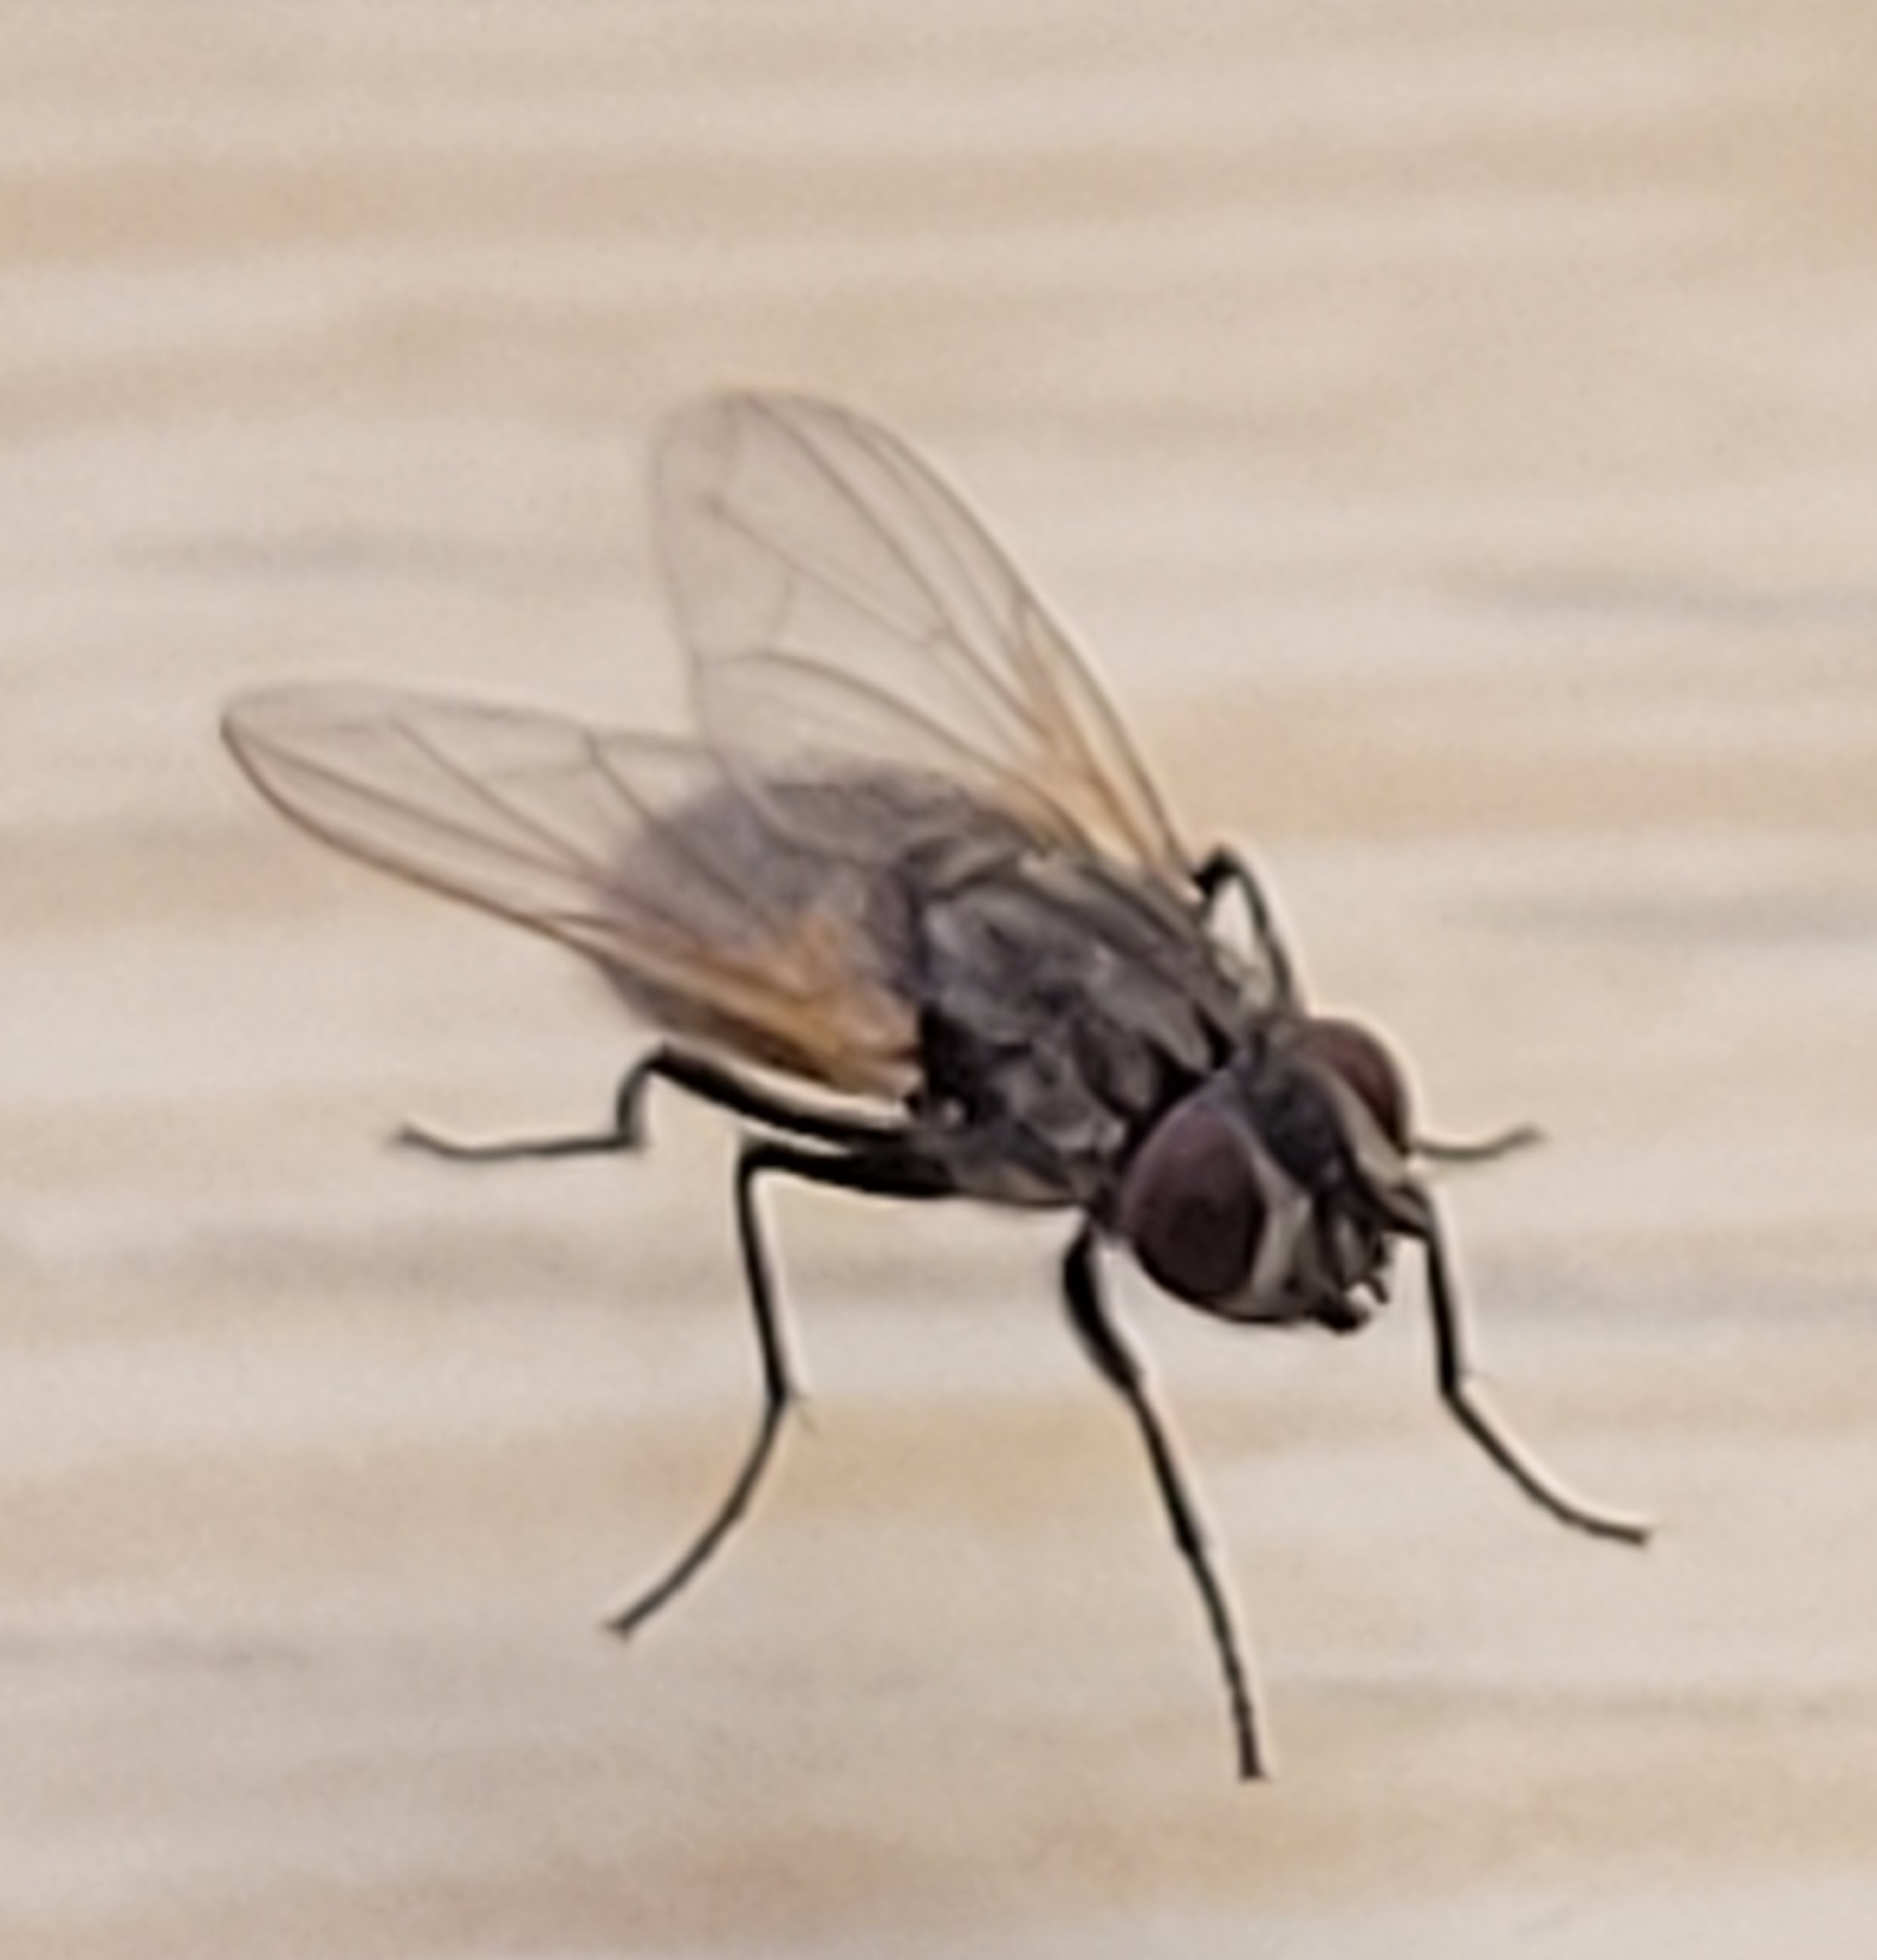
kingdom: Animalia
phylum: Arthropoda
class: Insecta
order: Diptera
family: Muscidae
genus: Musca
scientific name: Musca domestica
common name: House fly
